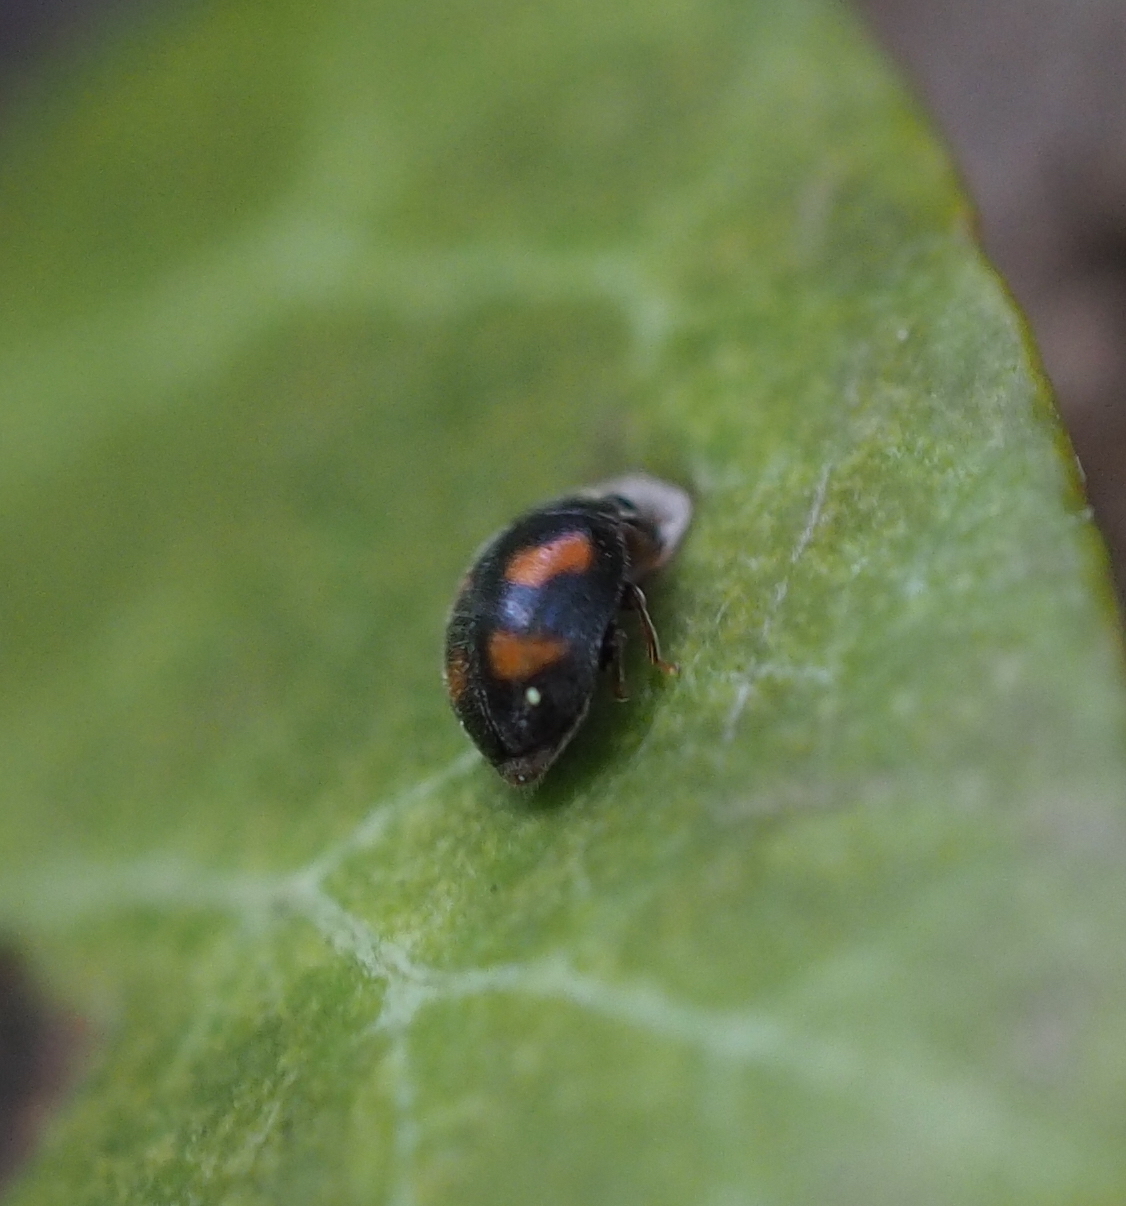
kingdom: Animalia
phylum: Arthropoda
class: Insecta
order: Coleoptera
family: Coccinellidae
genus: Nephus
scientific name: Nephus quadrimaculatus
